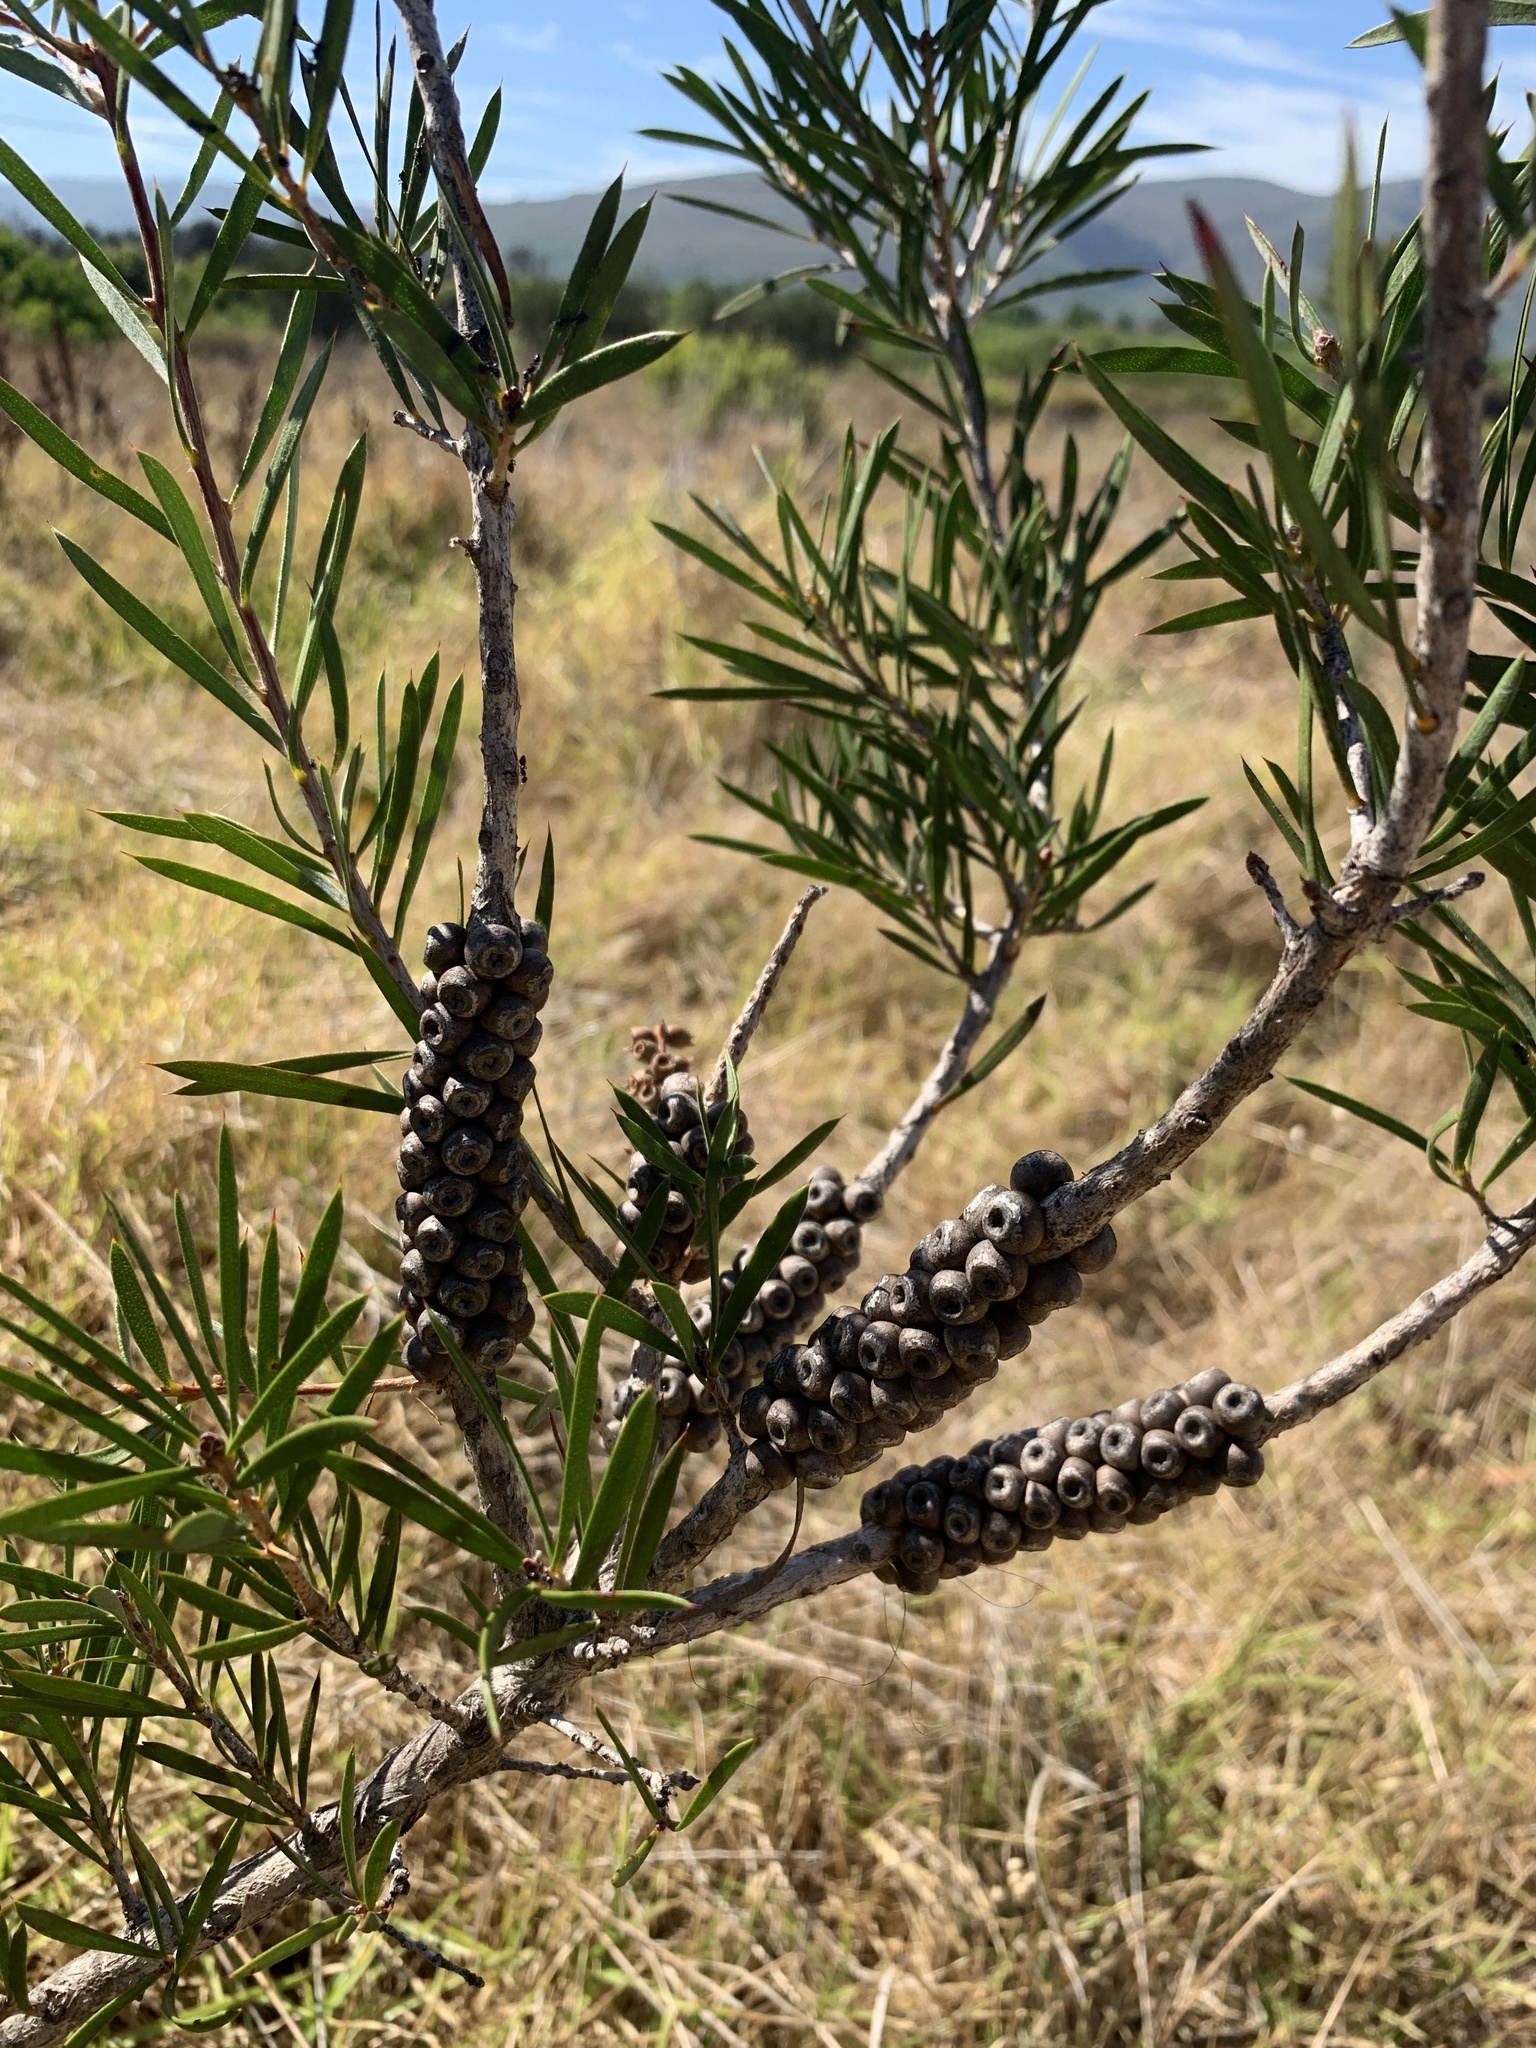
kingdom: Plantae
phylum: Tracheophyta
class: Magnoliopsida
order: Myrtales
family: Myrtaceae
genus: Callistemon
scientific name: Callistemon rugulosus
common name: Scarlet bottlebrush
